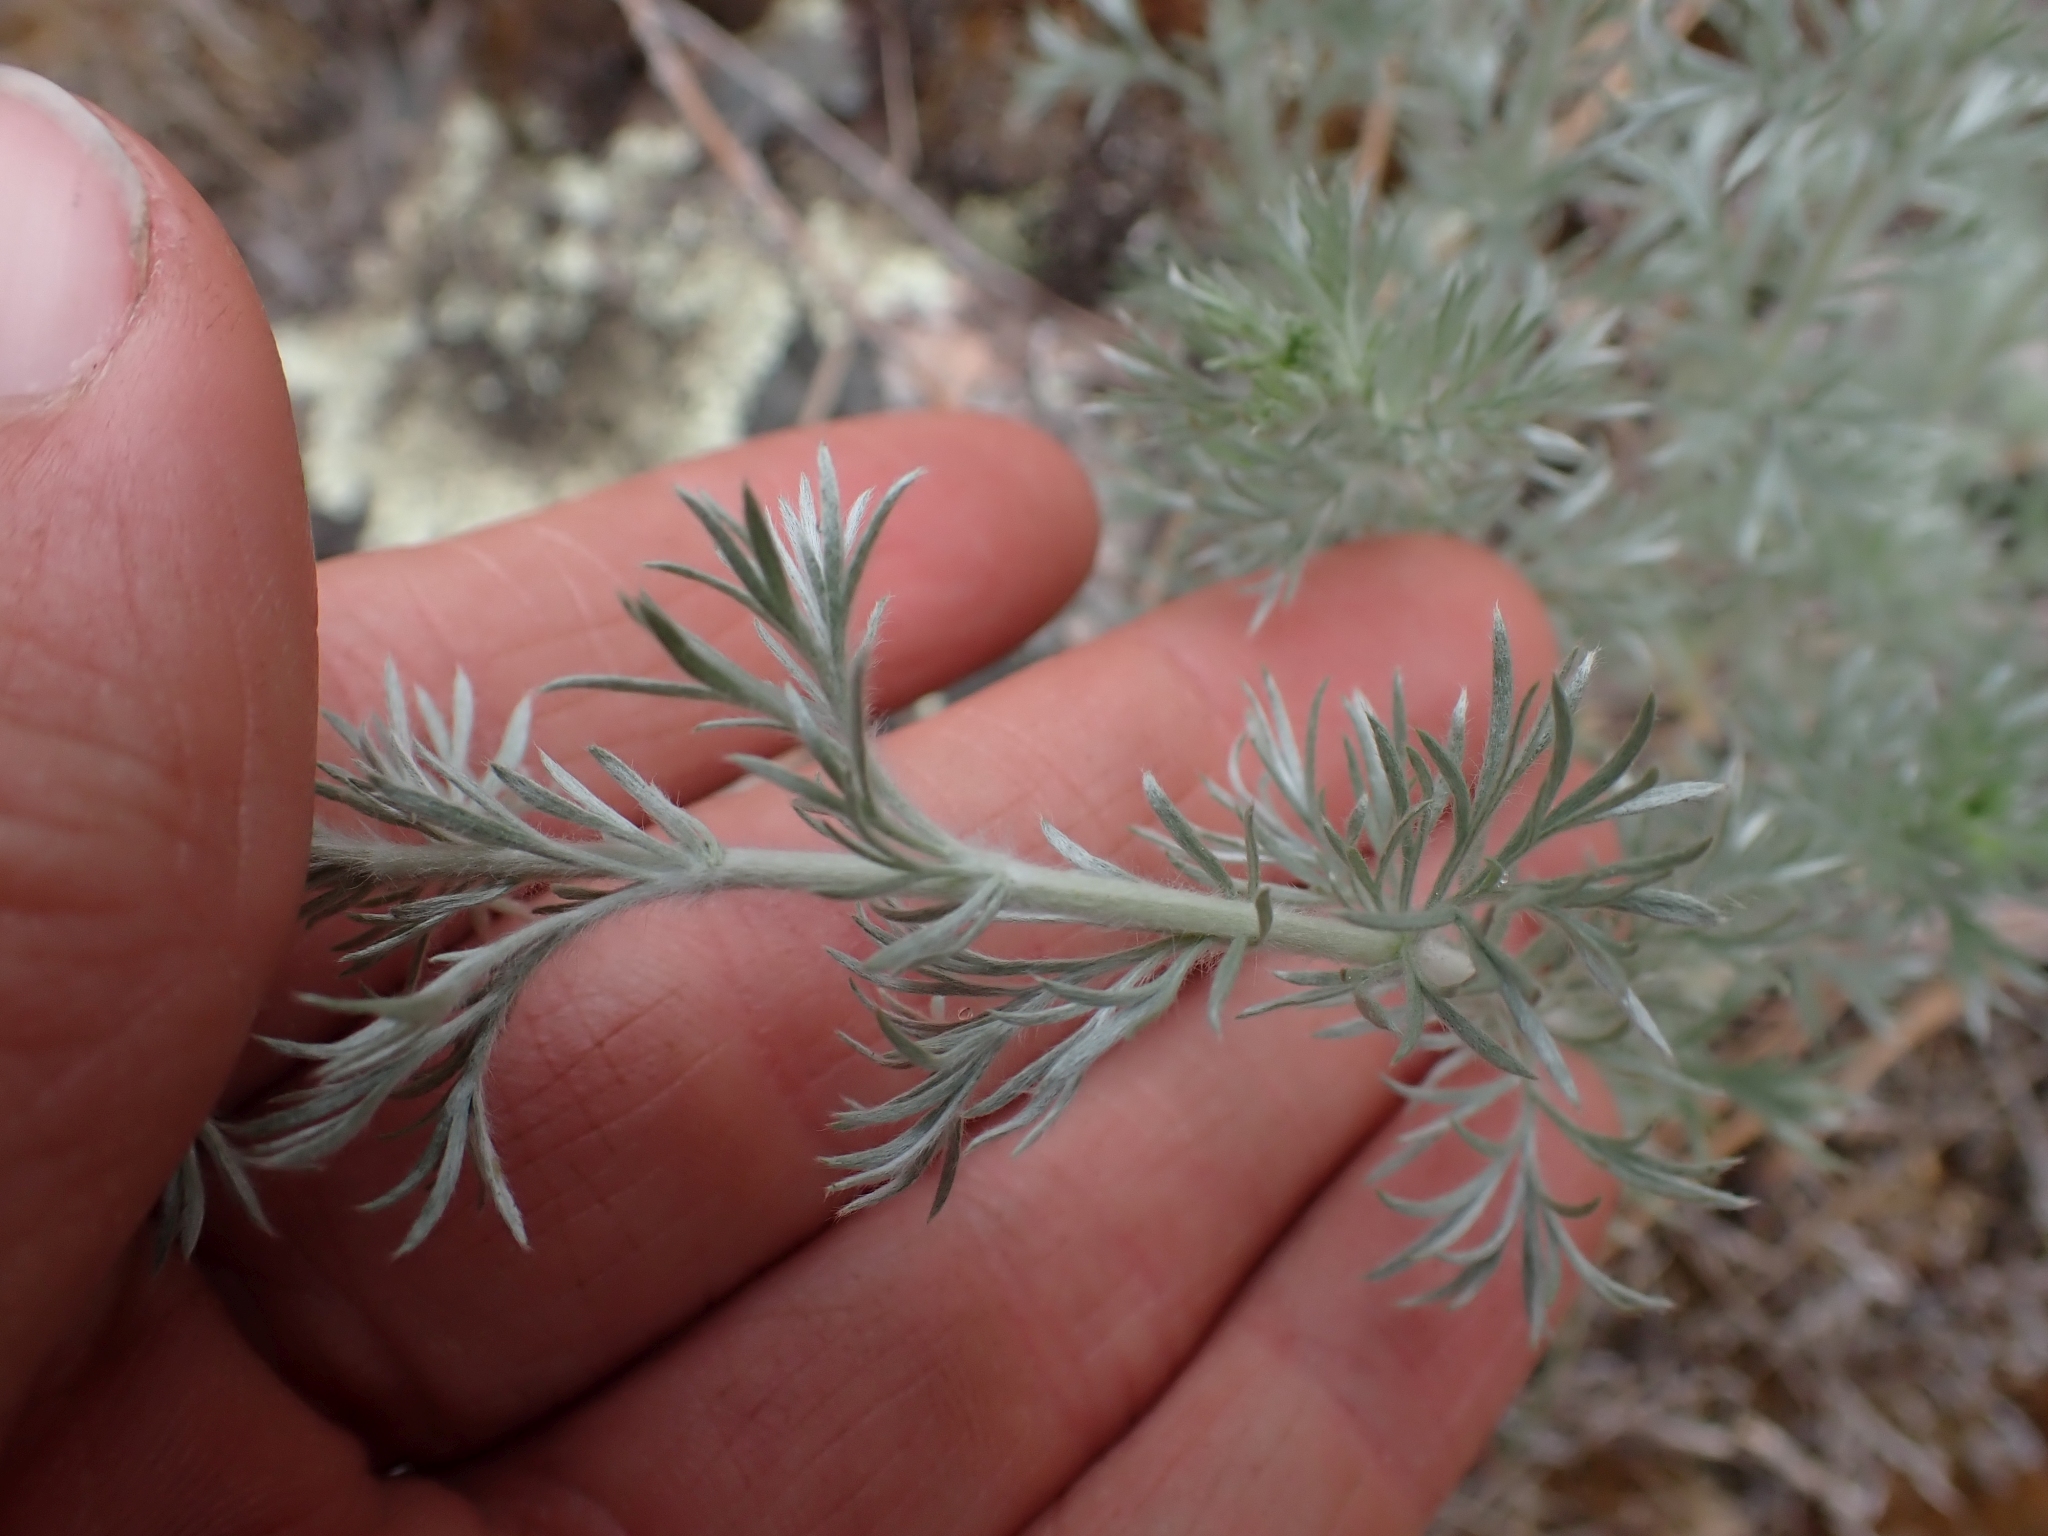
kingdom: Plantae
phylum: Tracheophyta
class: Magnoliopsida
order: Asterales
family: Asteraceae
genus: Artemisia
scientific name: Artemisia frigida
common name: Prairie sagewort
